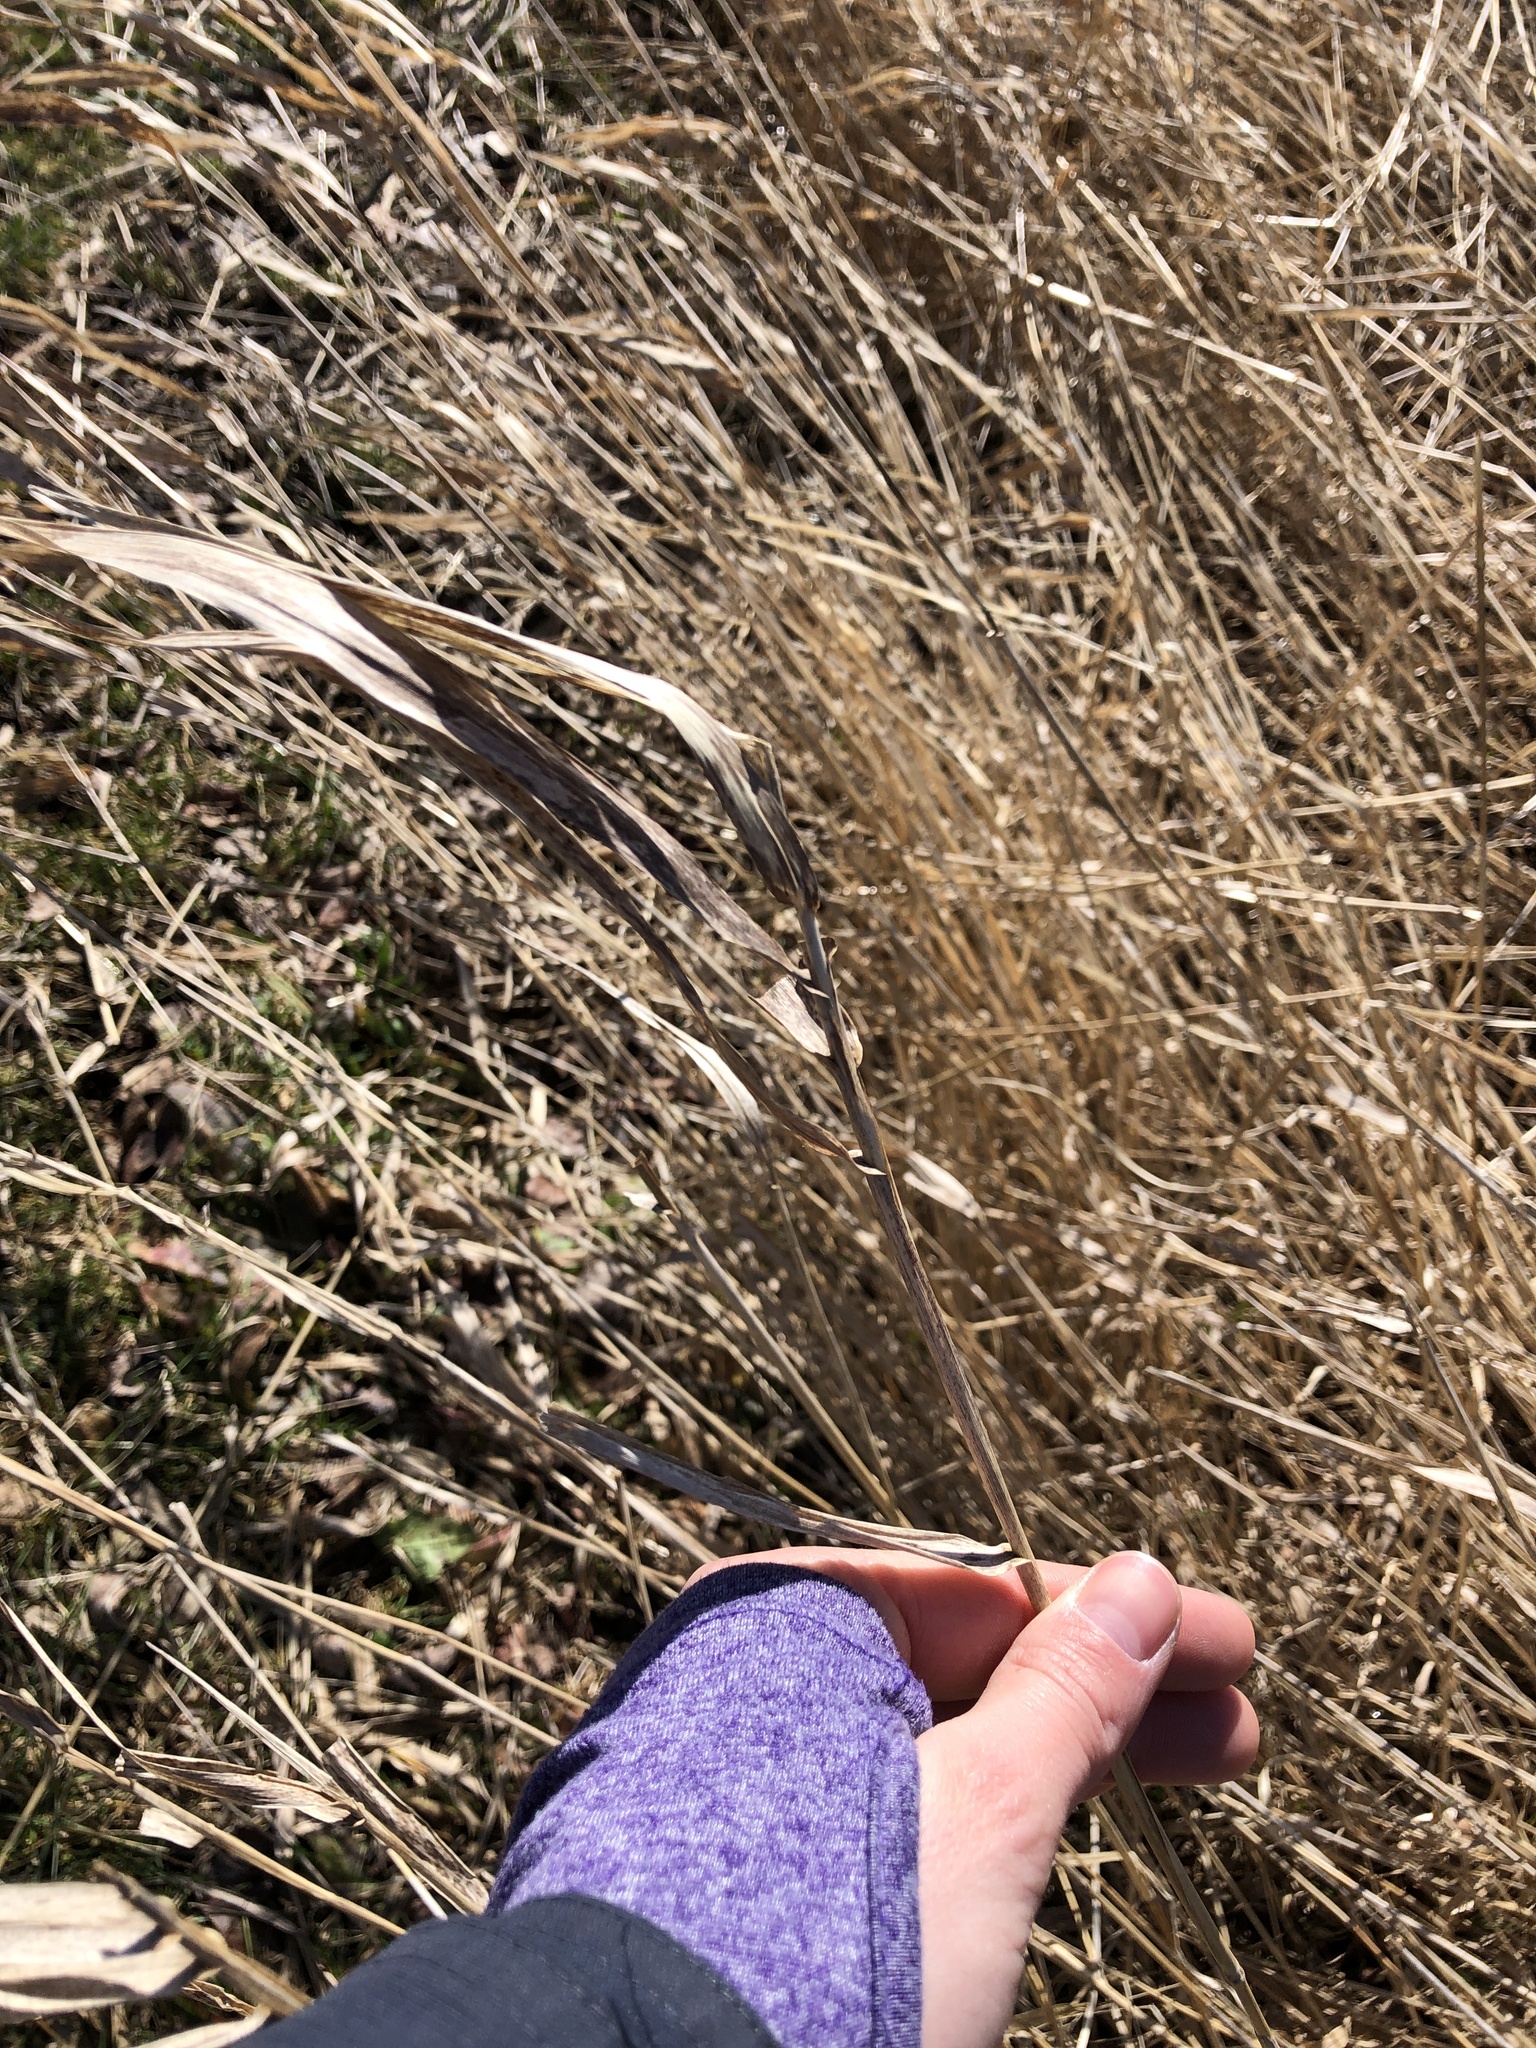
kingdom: Plantae
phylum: Tracheophyta
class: Liliopsida
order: Poales
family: Poaceae
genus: Phalaris
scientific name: Phalaris arundinacea
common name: Reed canary-grass
